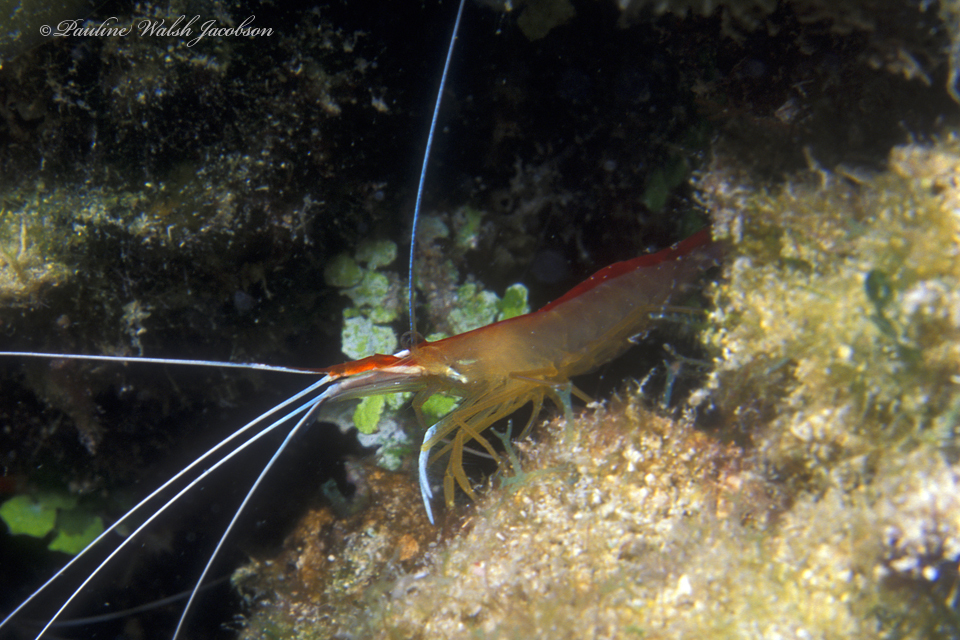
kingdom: Animalia
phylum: Arthropoda
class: Malacostraca
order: Decapoda
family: Lysmatidae
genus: Lysmata
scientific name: Lysmata grabhami
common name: Scarlet-striped cleaning shrimp
